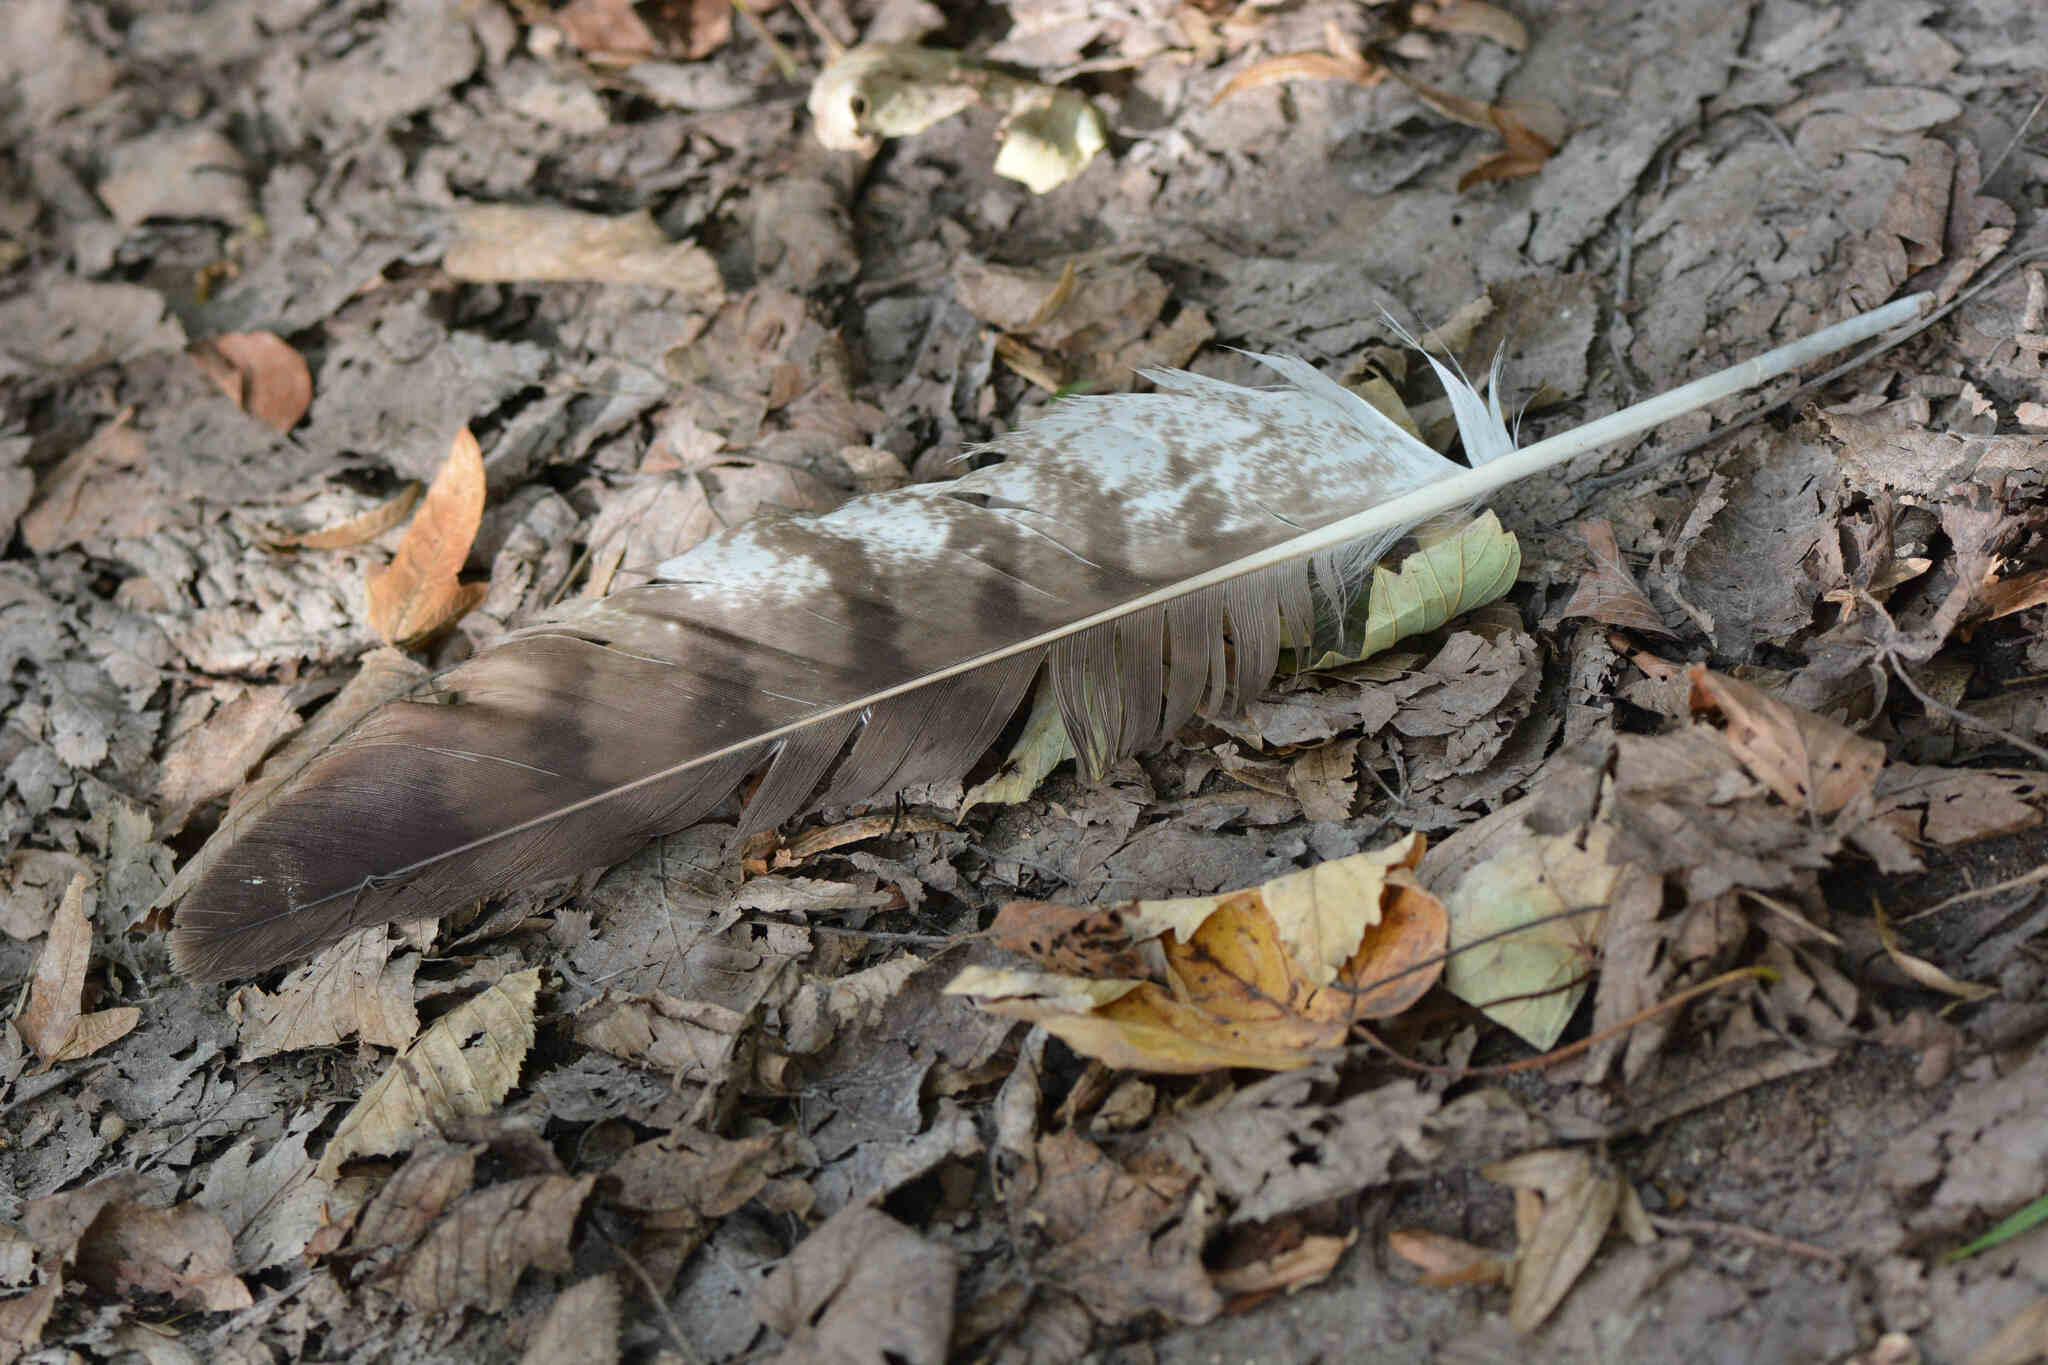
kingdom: Animalia
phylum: Chordata
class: Aves
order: Accipitriformes
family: Accipitridae
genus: Buteo
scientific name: Buteo buteo
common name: Common buzzard
